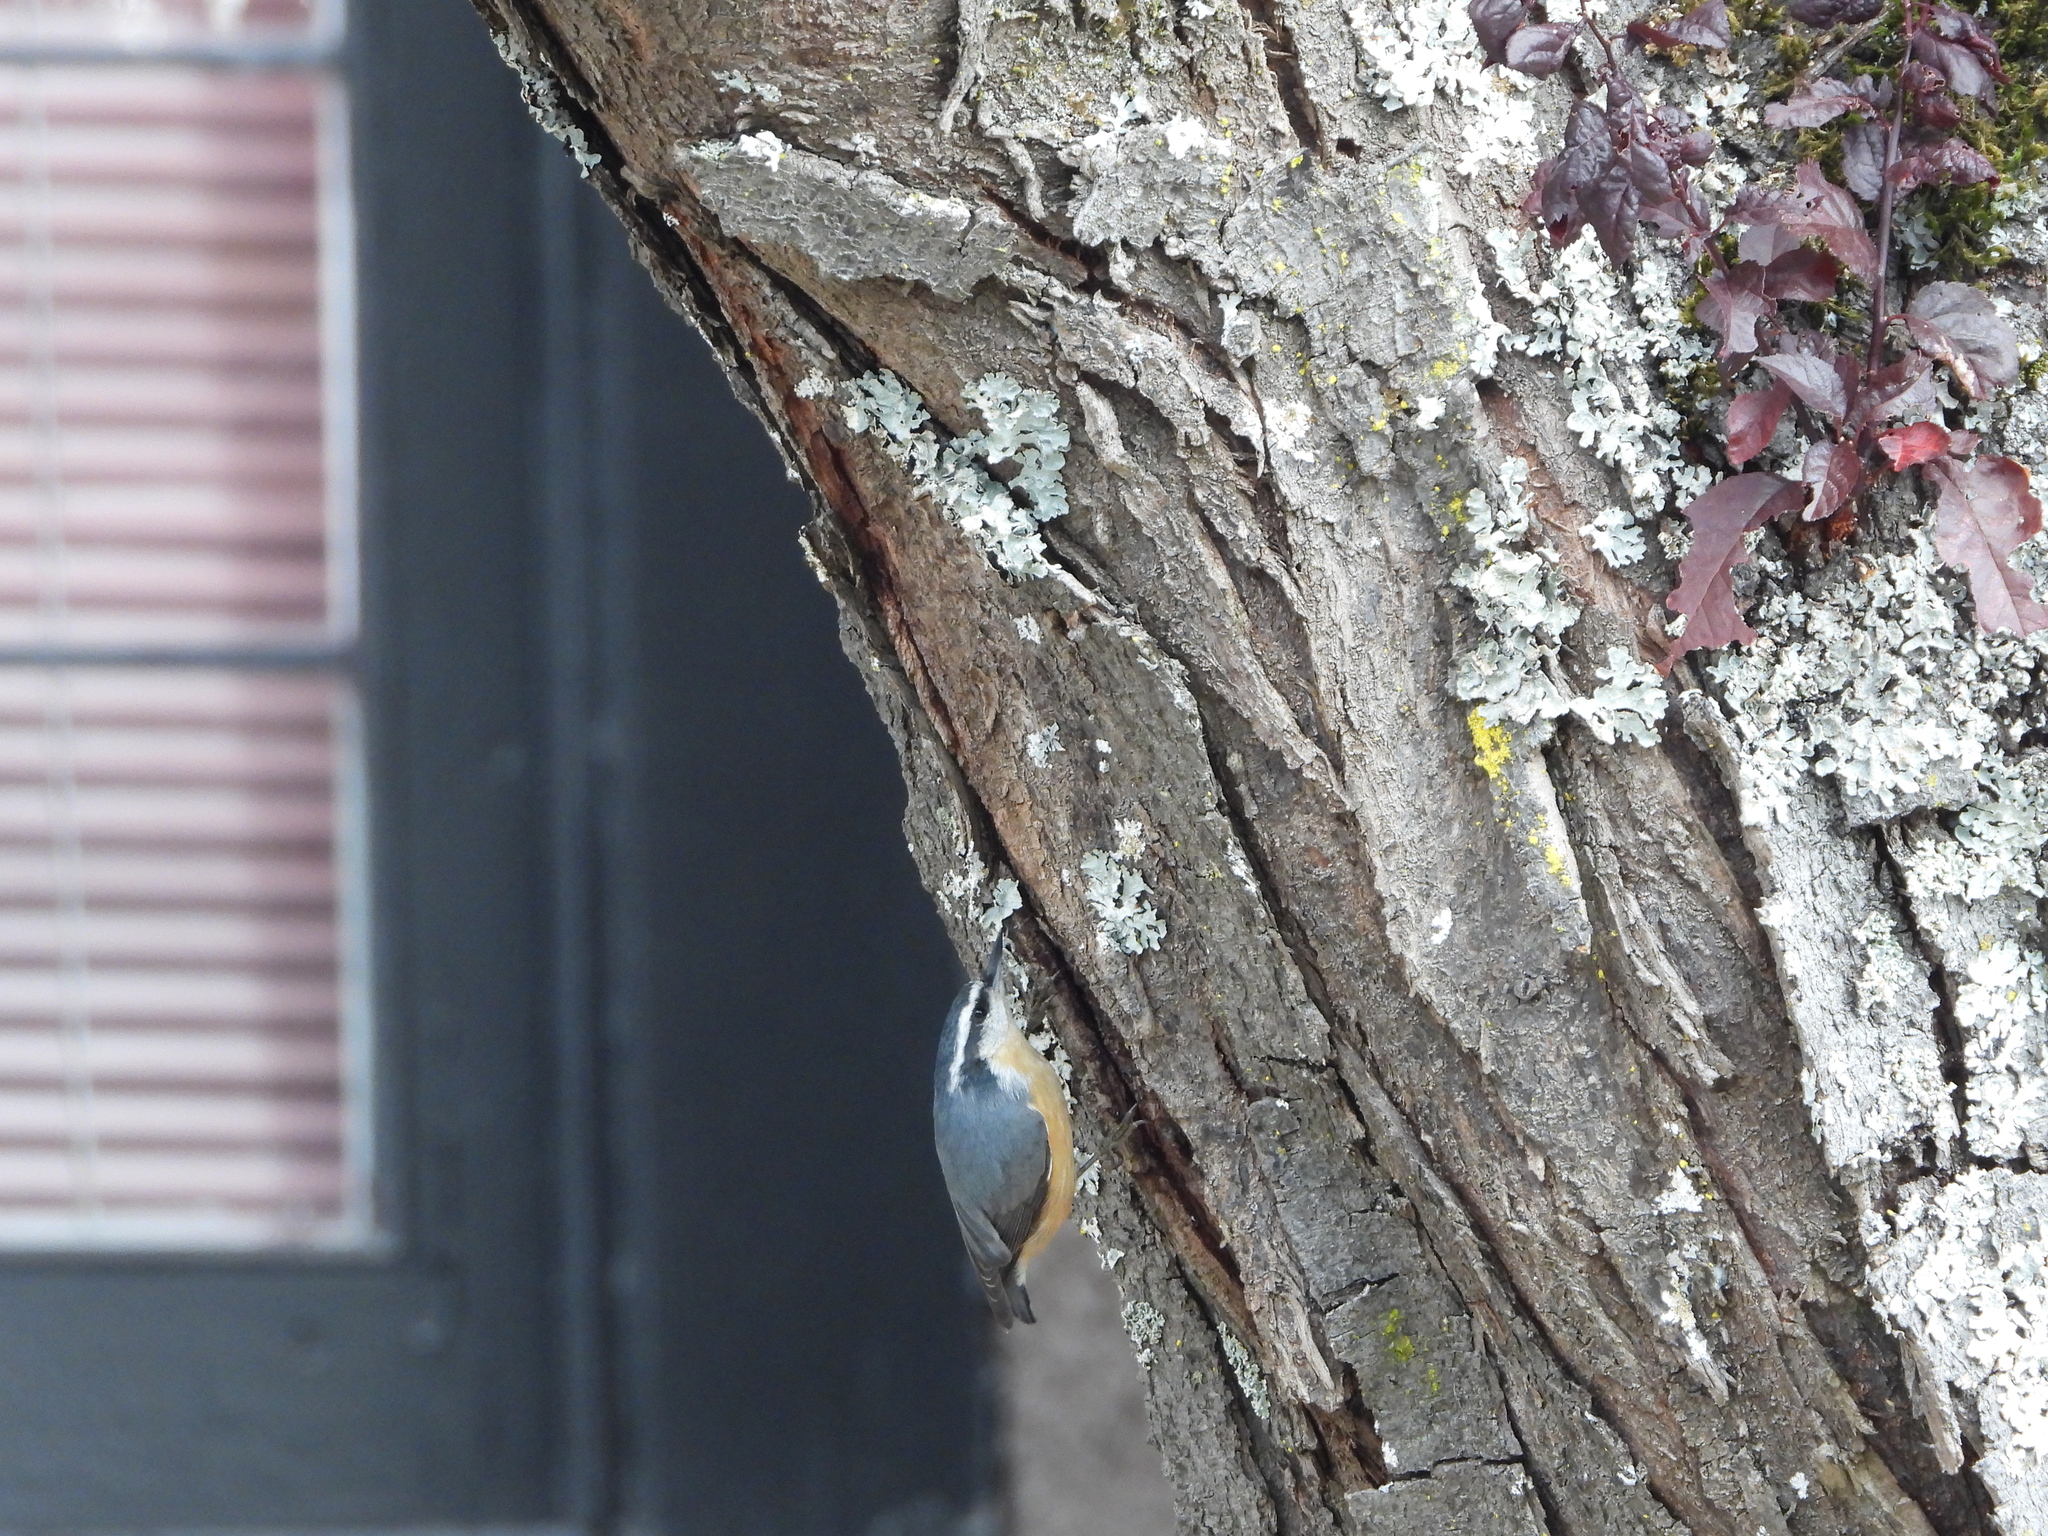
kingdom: Animalia
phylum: Chordata
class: Aves
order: Passeriformes
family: Sittidae
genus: Sitta
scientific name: Sitta canadensis
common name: Red-breasted nuthatch
